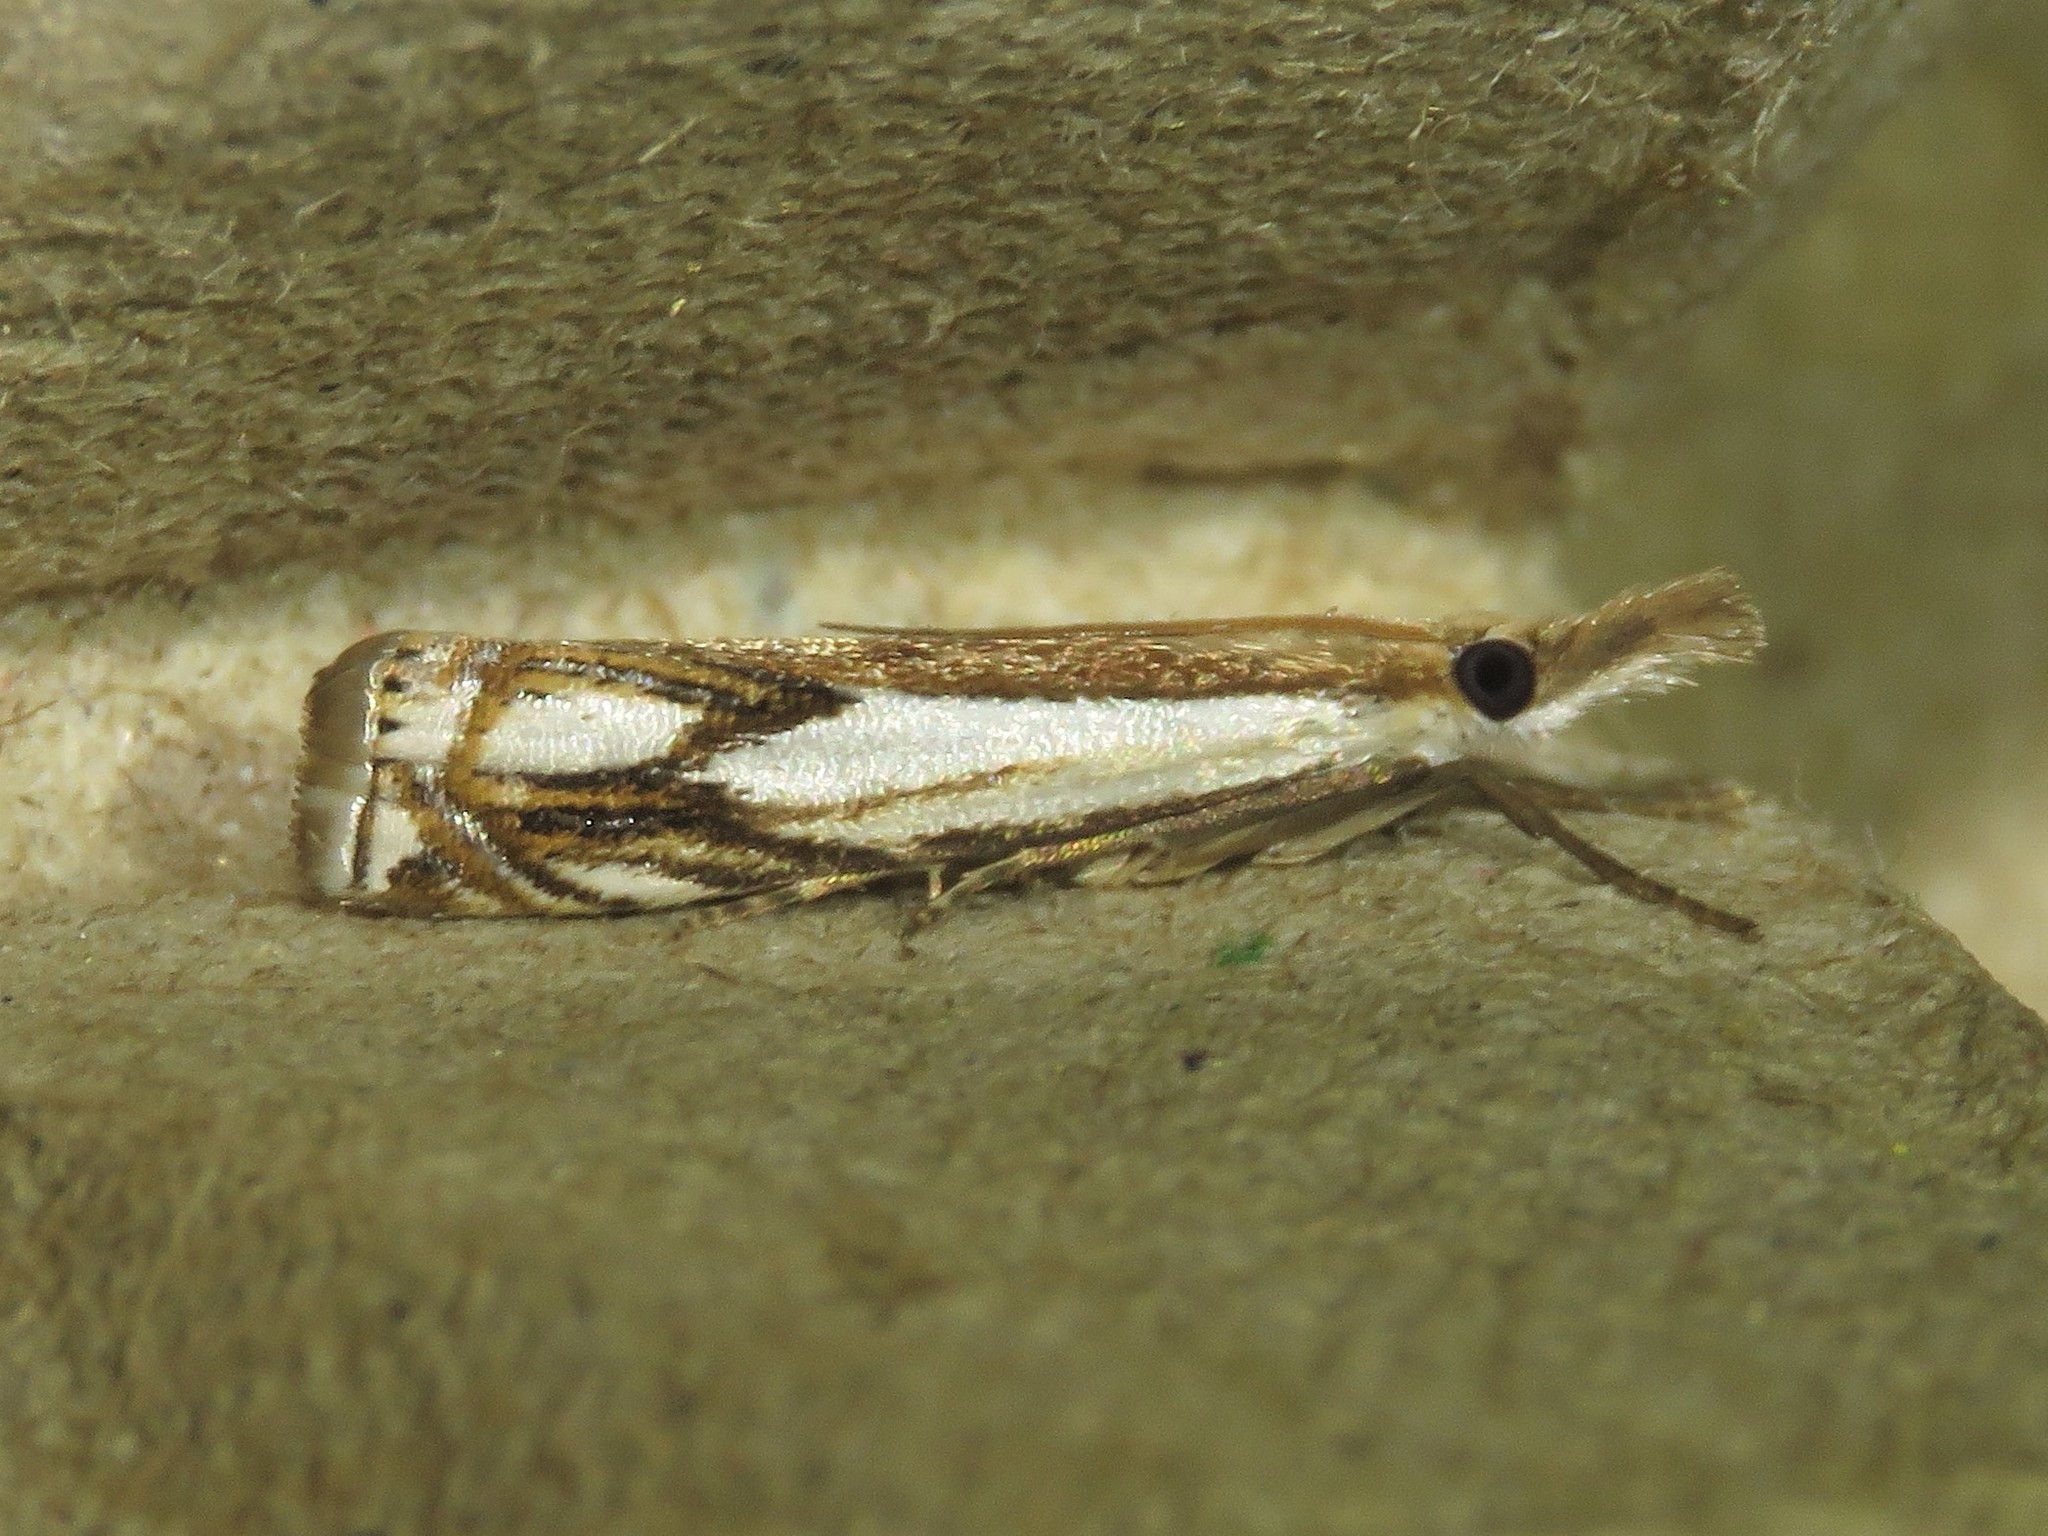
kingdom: Animalia
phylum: Arthropoda
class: Insecta
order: Lepidoptera
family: Crambidae
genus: Crambus
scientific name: Crambus agitatellus
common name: Double-banded grass-veneer
